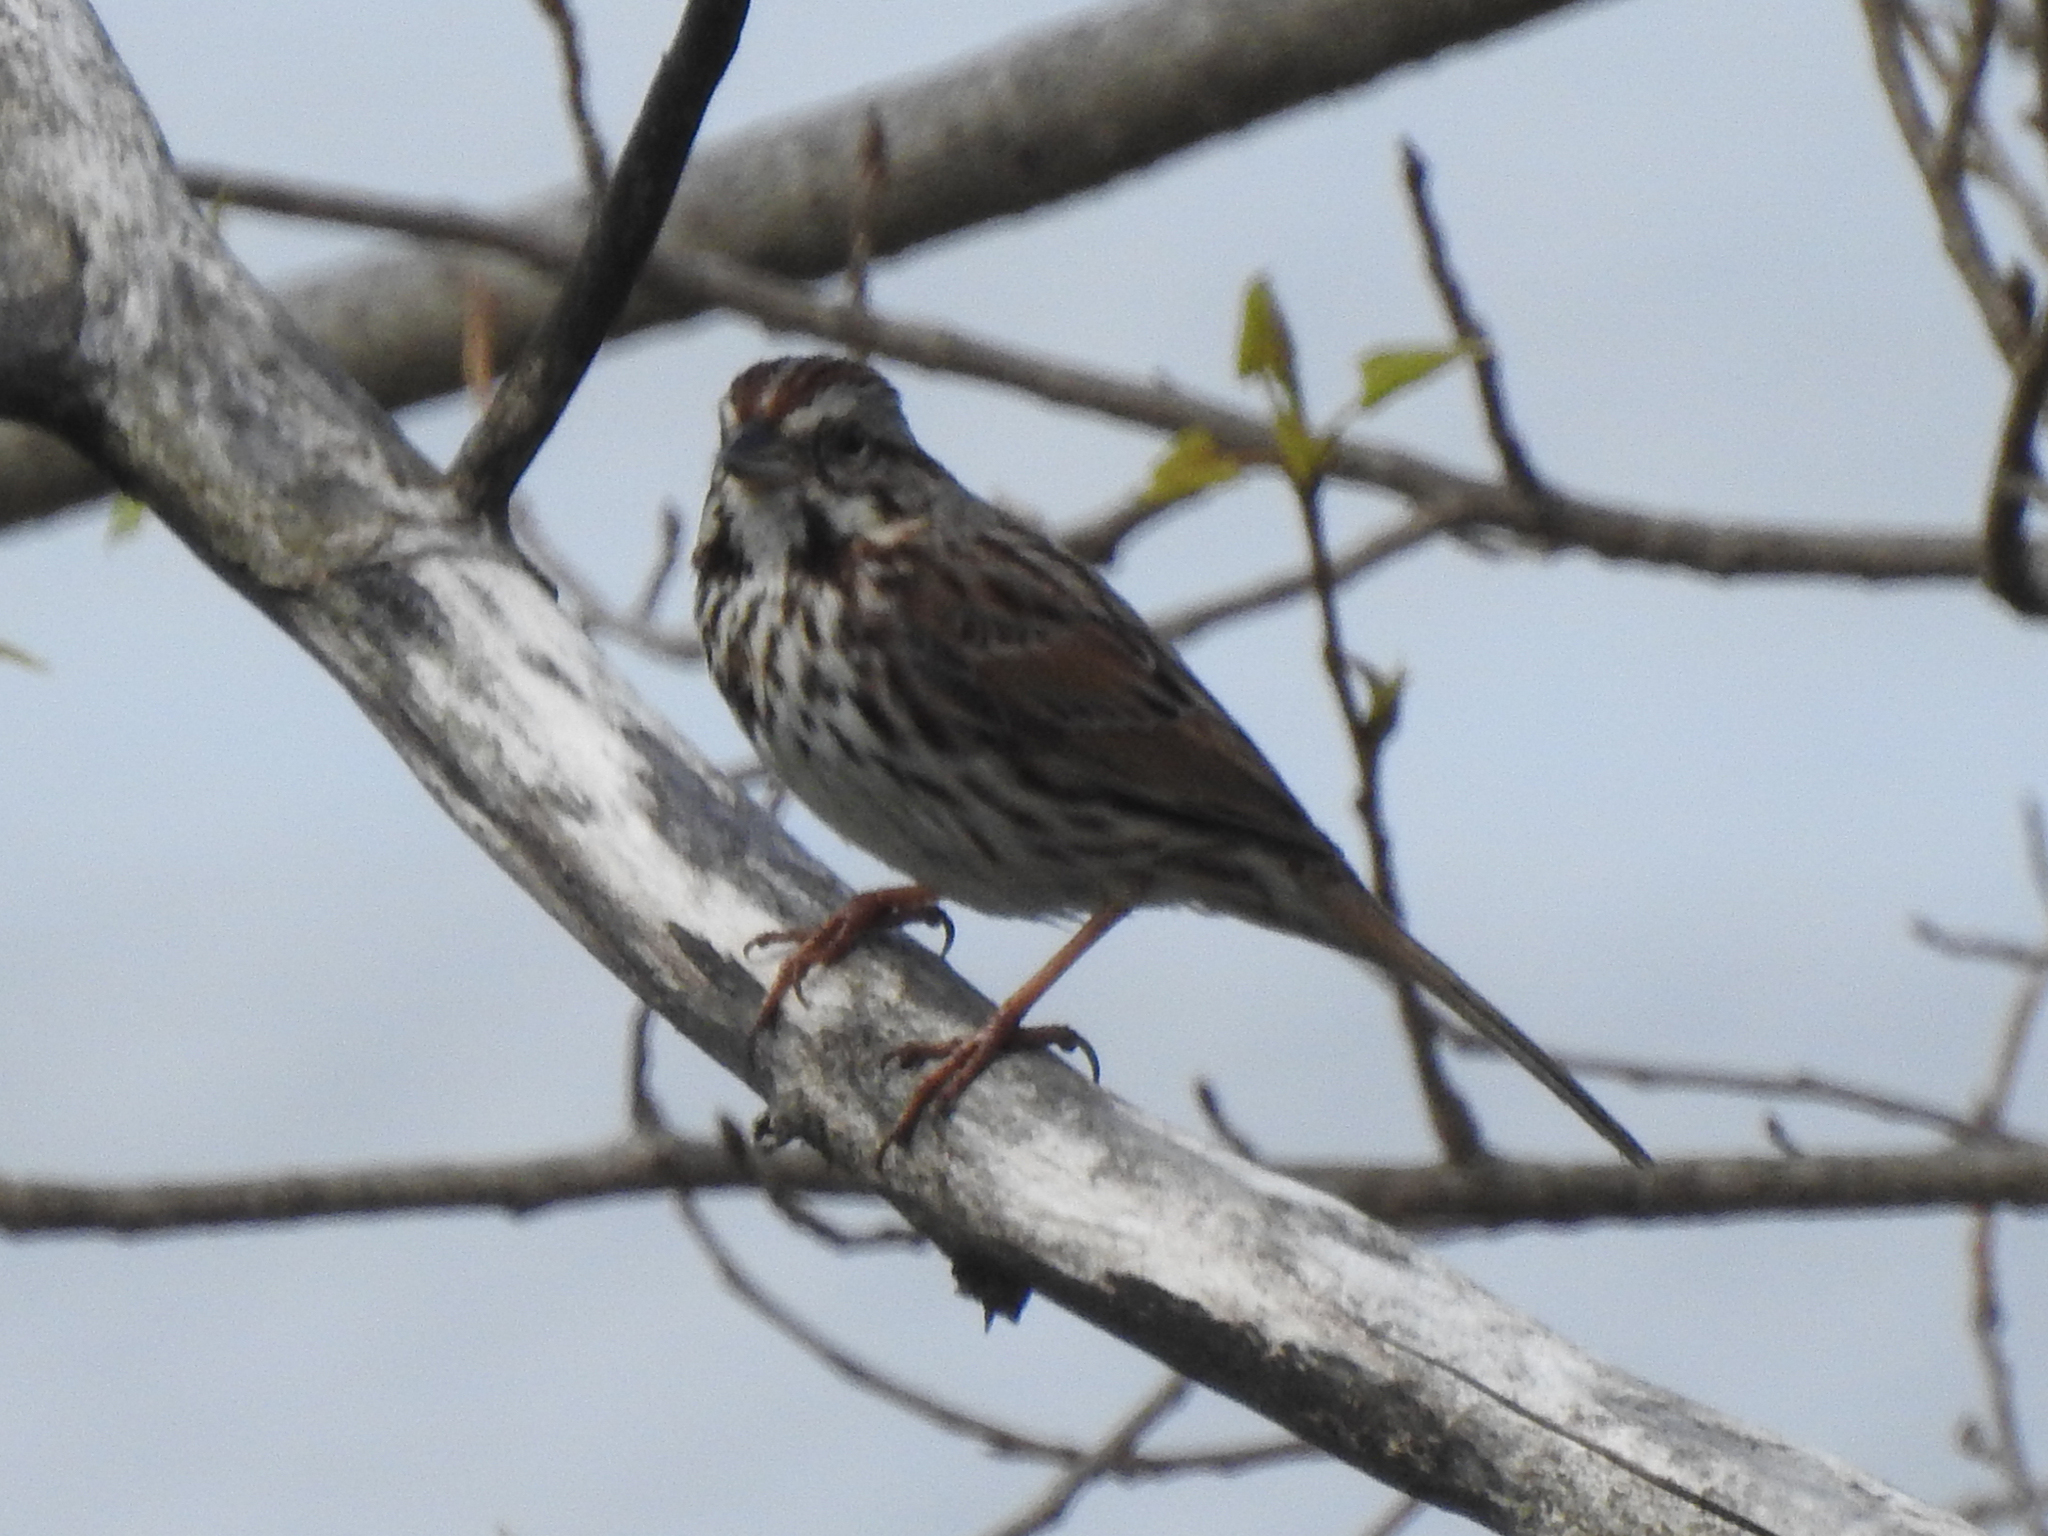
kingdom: Animalia
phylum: Chordata
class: Aves
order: Passeriformes
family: Passerellidae
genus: Melospiza
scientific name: Melospiza melodia
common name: Song sparrow
